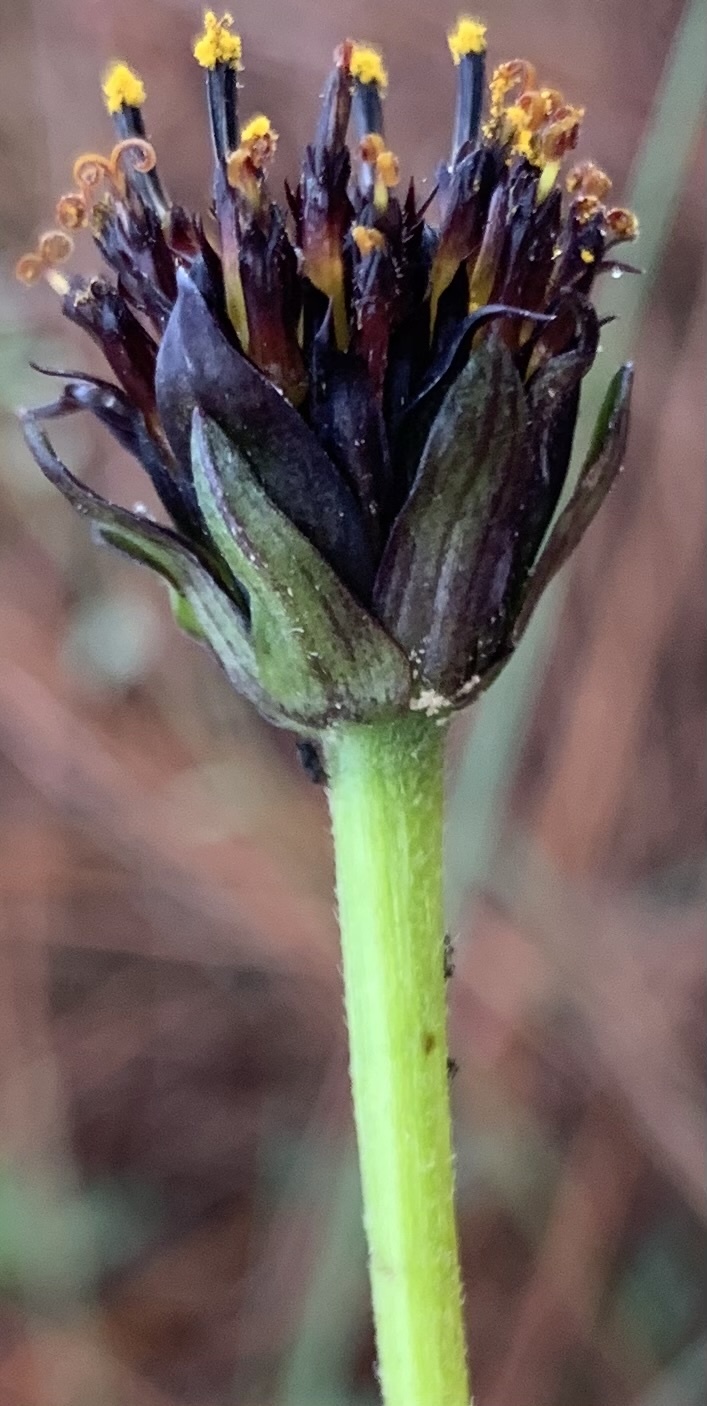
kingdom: Plantae
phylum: Tracheophyta
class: Magnoliopsida
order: Asterales
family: Asteraceae
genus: Helianthus
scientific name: Helianthus radula
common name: Pineland sunflower
